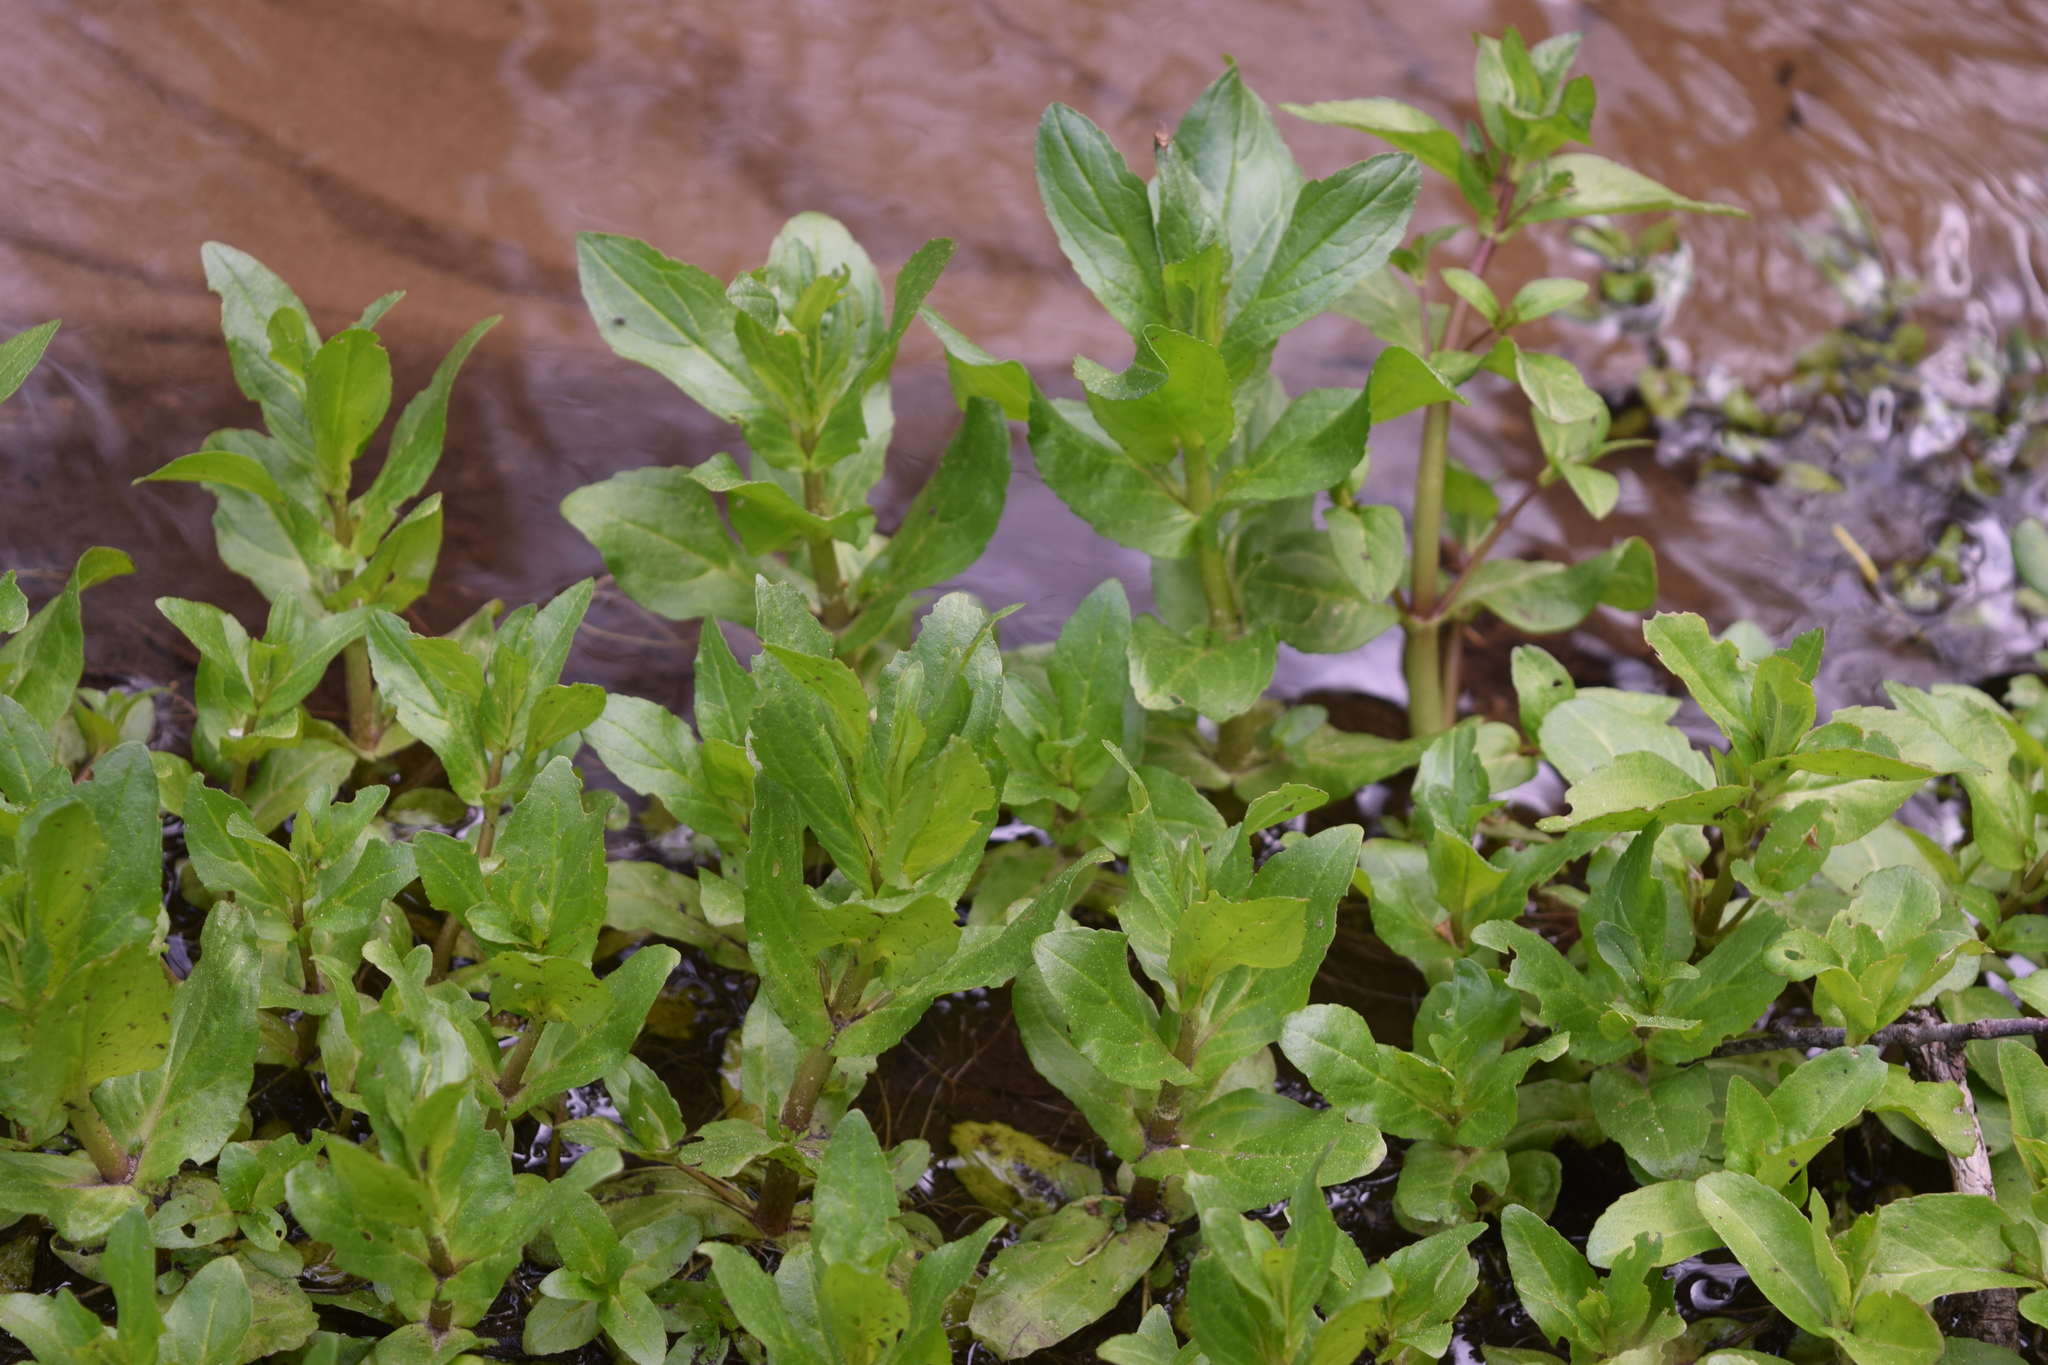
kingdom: Plantae
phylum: Tracheophyta
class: Magnoliopsida
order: Lamiales
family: Plantaginaceae
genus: Veronica
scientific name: Veronica beccabunga
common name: Brooklime
